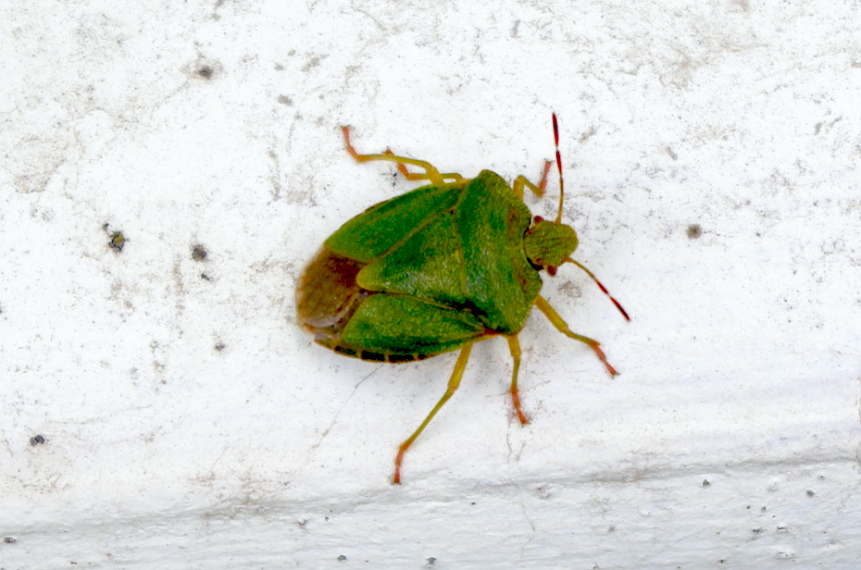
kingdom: Animalia
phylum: Arthropoda
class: Insecta
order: Hemiptera
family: Pentatomidae
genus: Palomena
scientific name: Palomena prasina
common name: Green shieldbug
